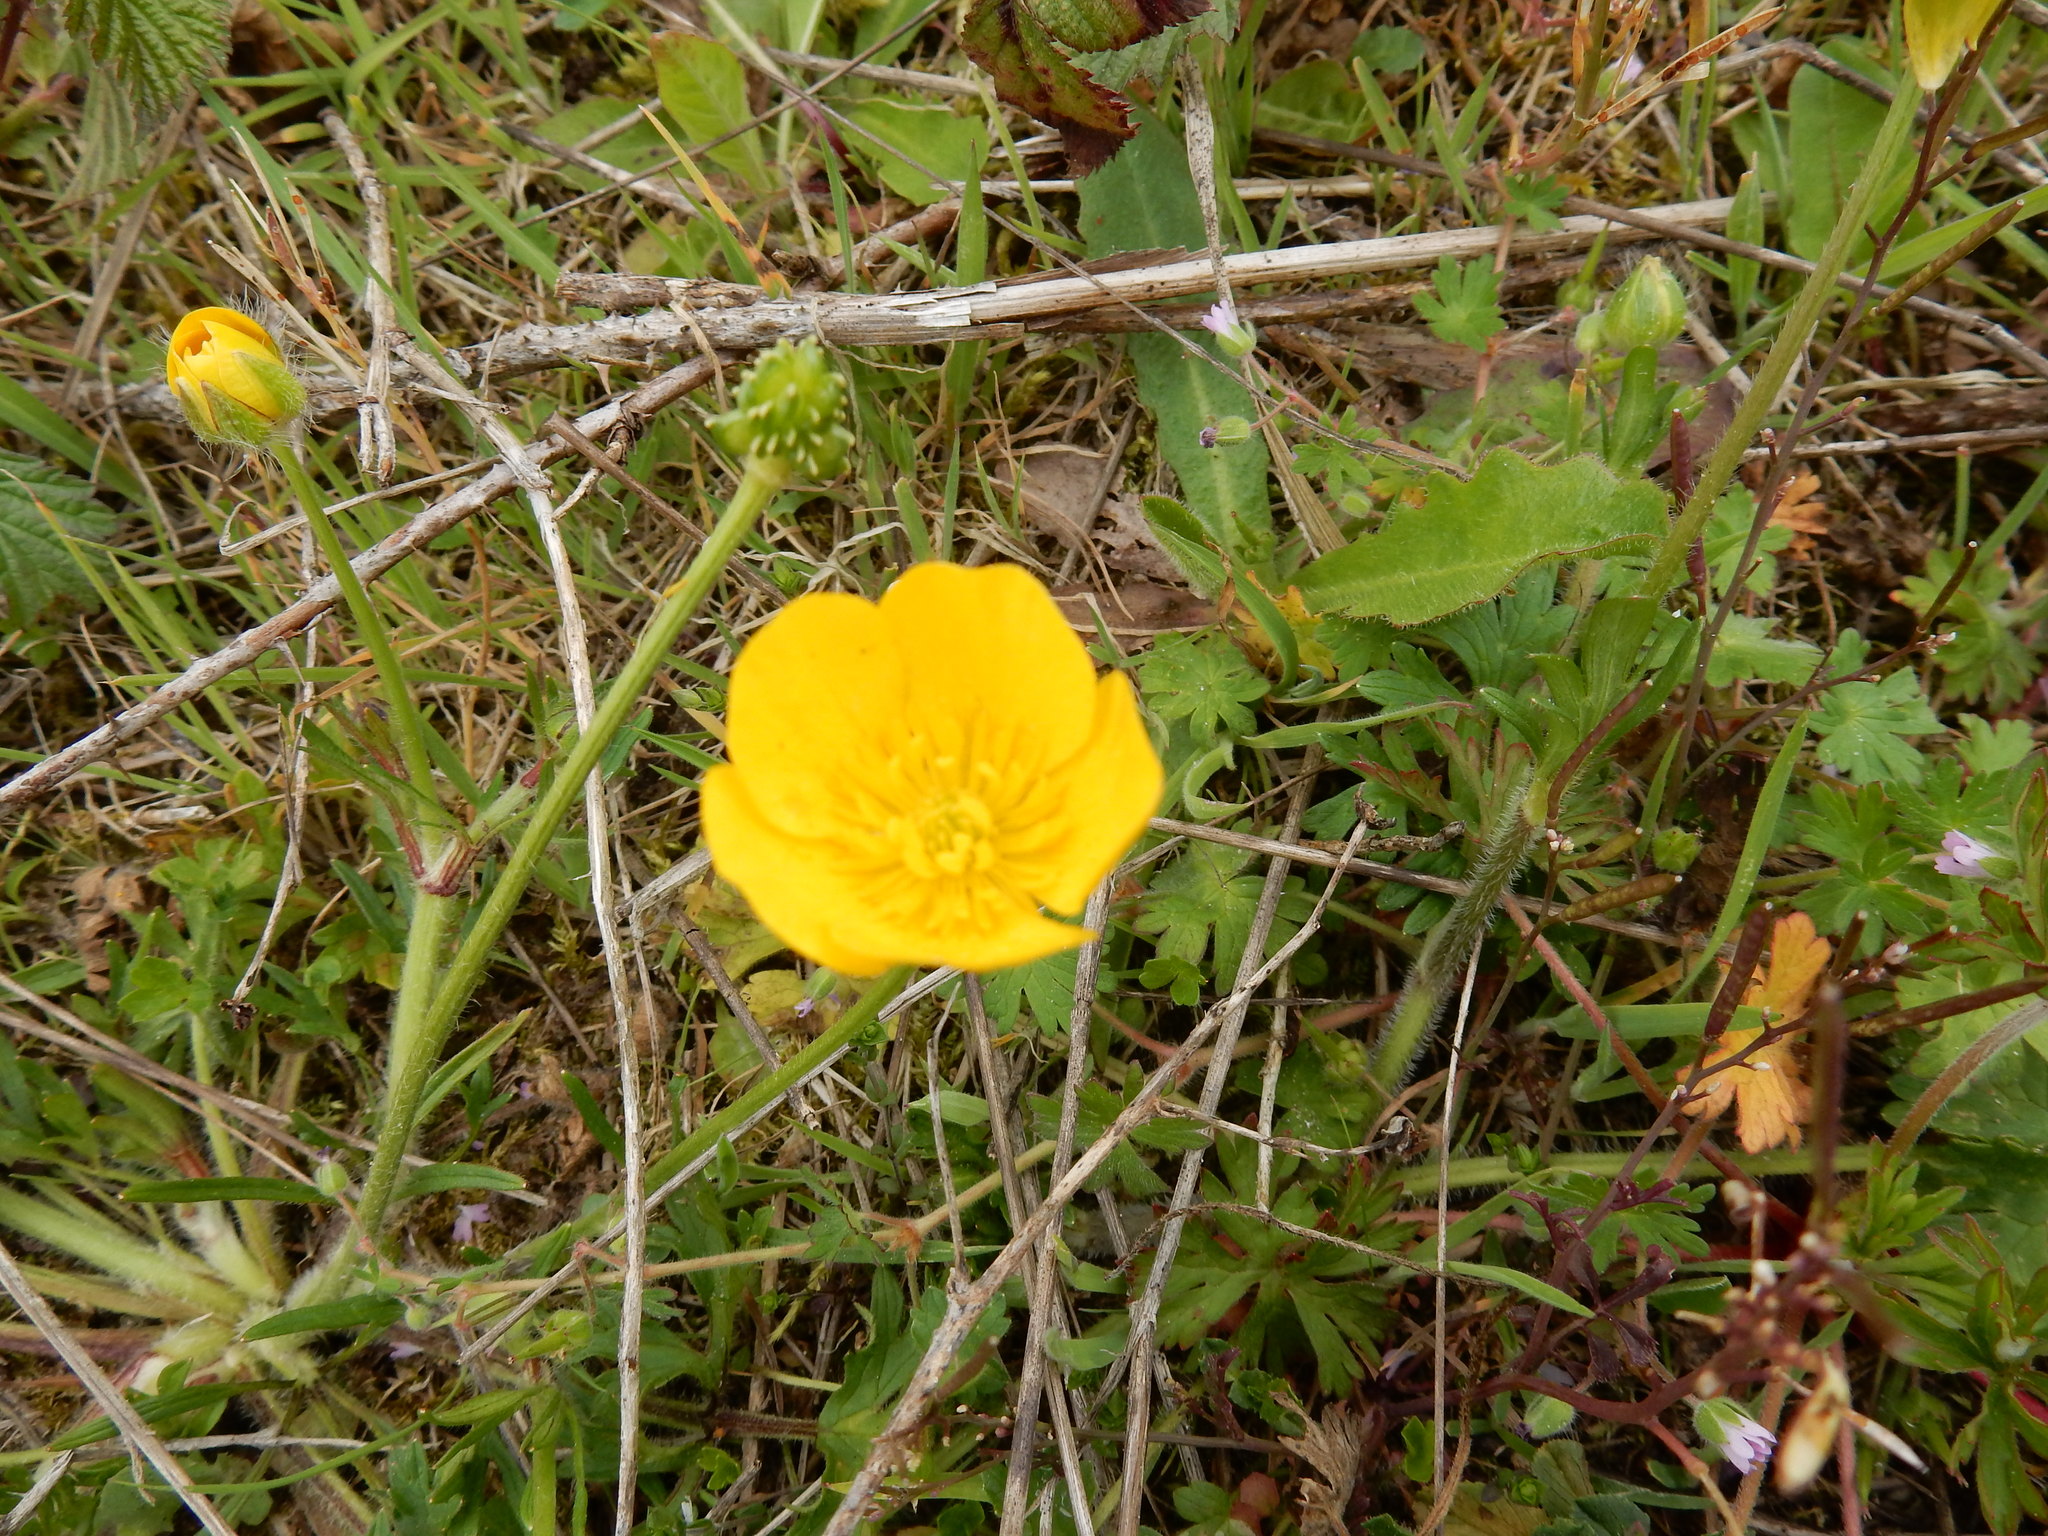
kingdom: Plantae
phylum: Tracheophyta
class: Magnoliopsida
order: Ranunculales
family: Ranunculaceae
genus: Ranunculus
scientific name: Ranunculus bulbosus
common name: Bulbous buttercup
